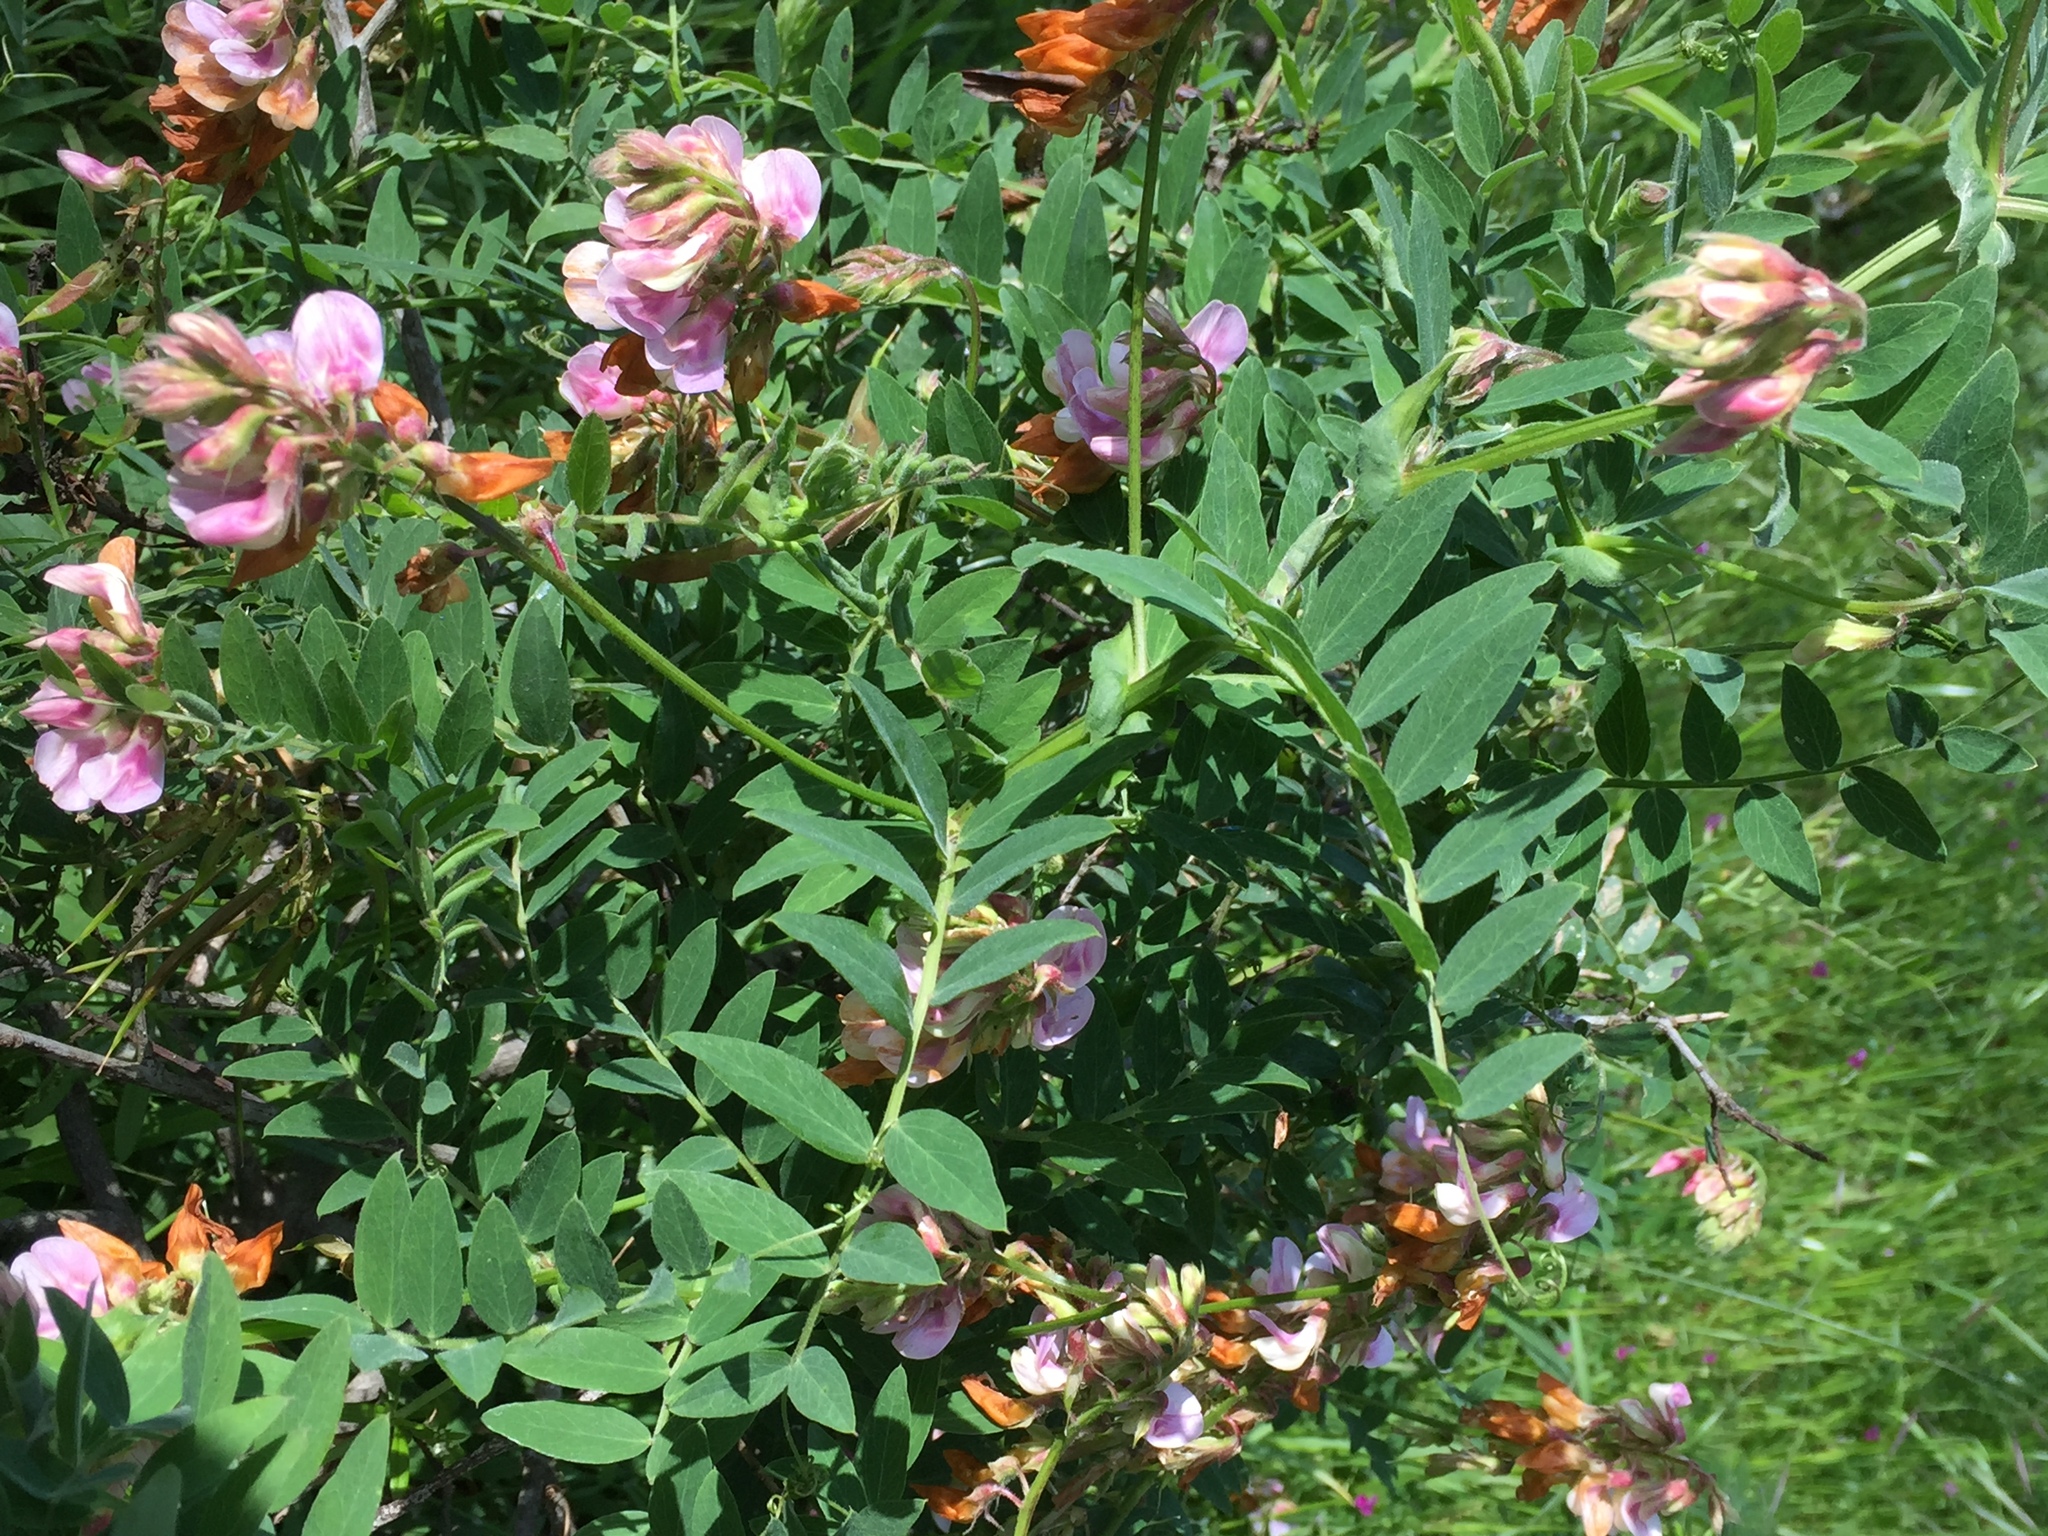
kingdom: Plantae
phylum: Tracheophyta
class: Magnoliopsida
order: Fabales
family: Fabaceae
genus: Lathyrus
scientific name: Lathyrus vestitus
